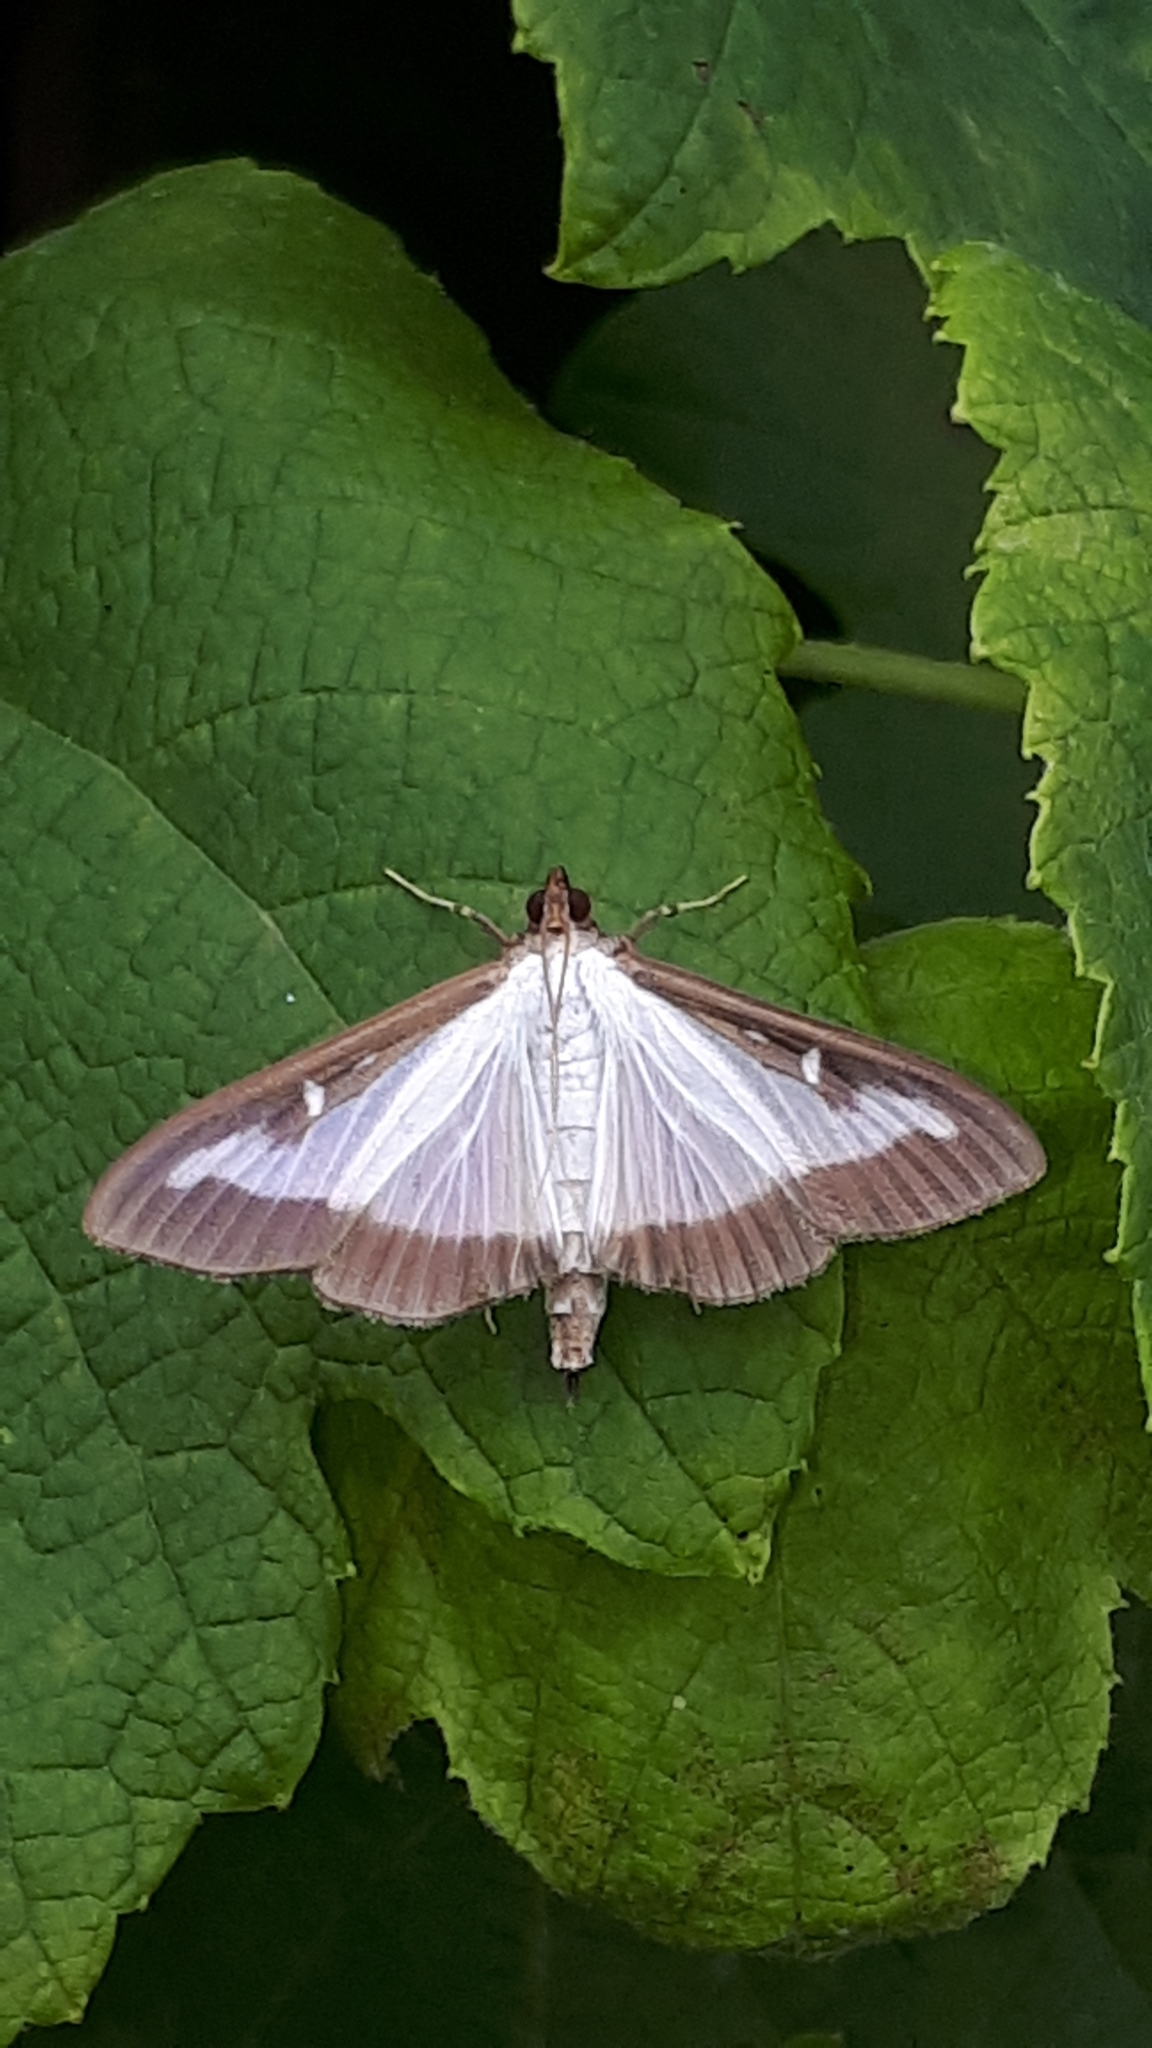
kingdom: Animalia
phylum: Arthropoda
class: Insecta
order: Lepidoptera
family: Crambidae
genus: Cydalima
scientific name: Cydalima perspectalis
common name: Box tree moth
